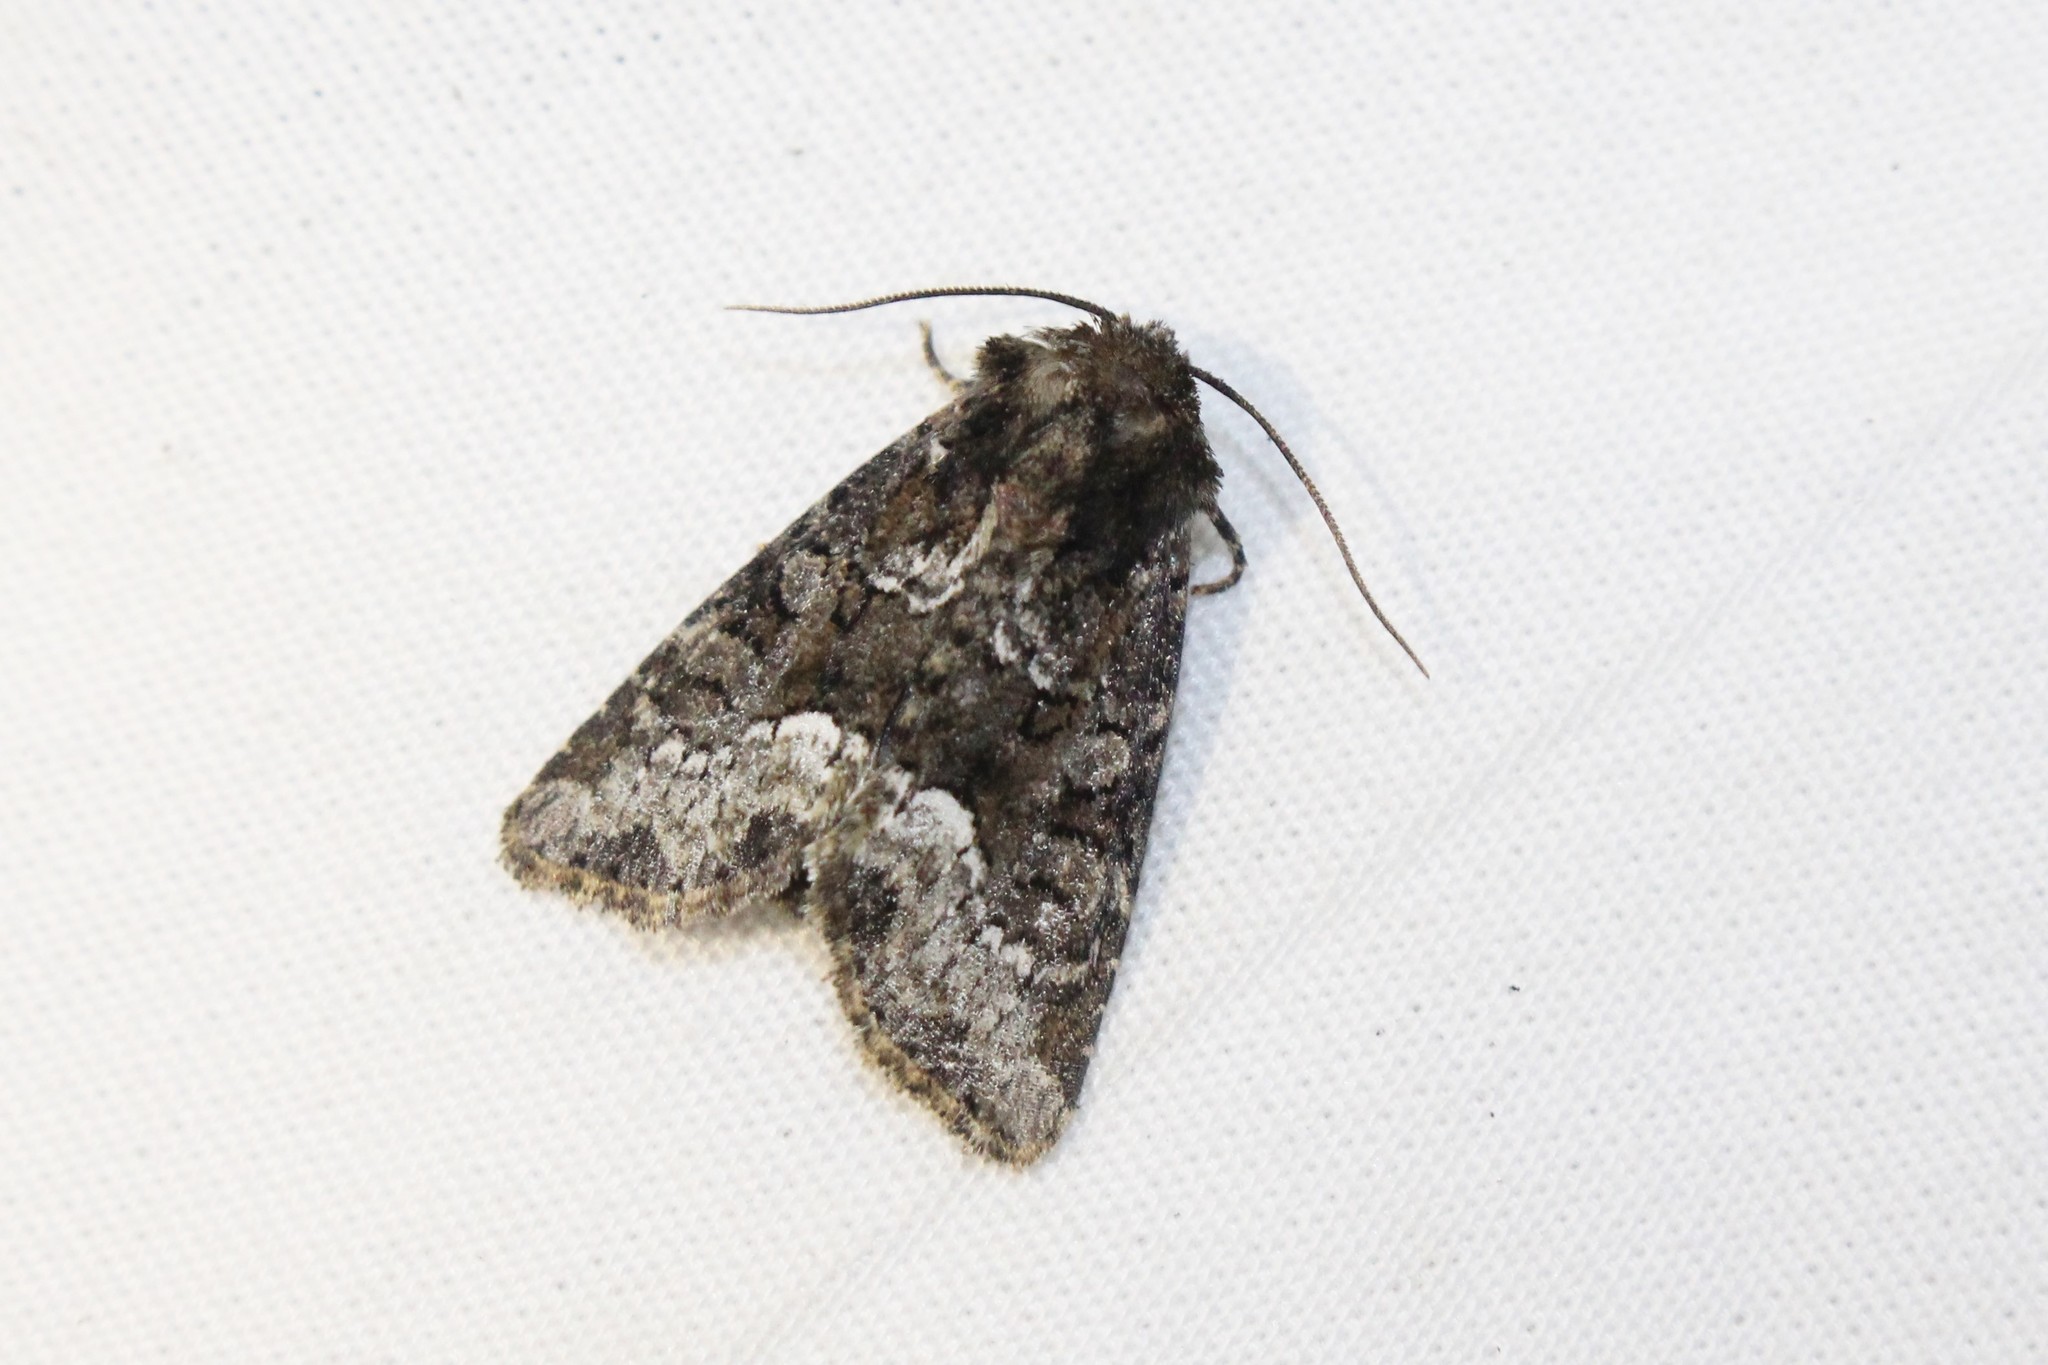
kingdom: Animalia
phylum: Arthropoda
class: Insecta
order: Lepidoptera
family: Noctuidae
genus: Oligia
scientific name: Oligia strigilis
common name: Marbled minor
